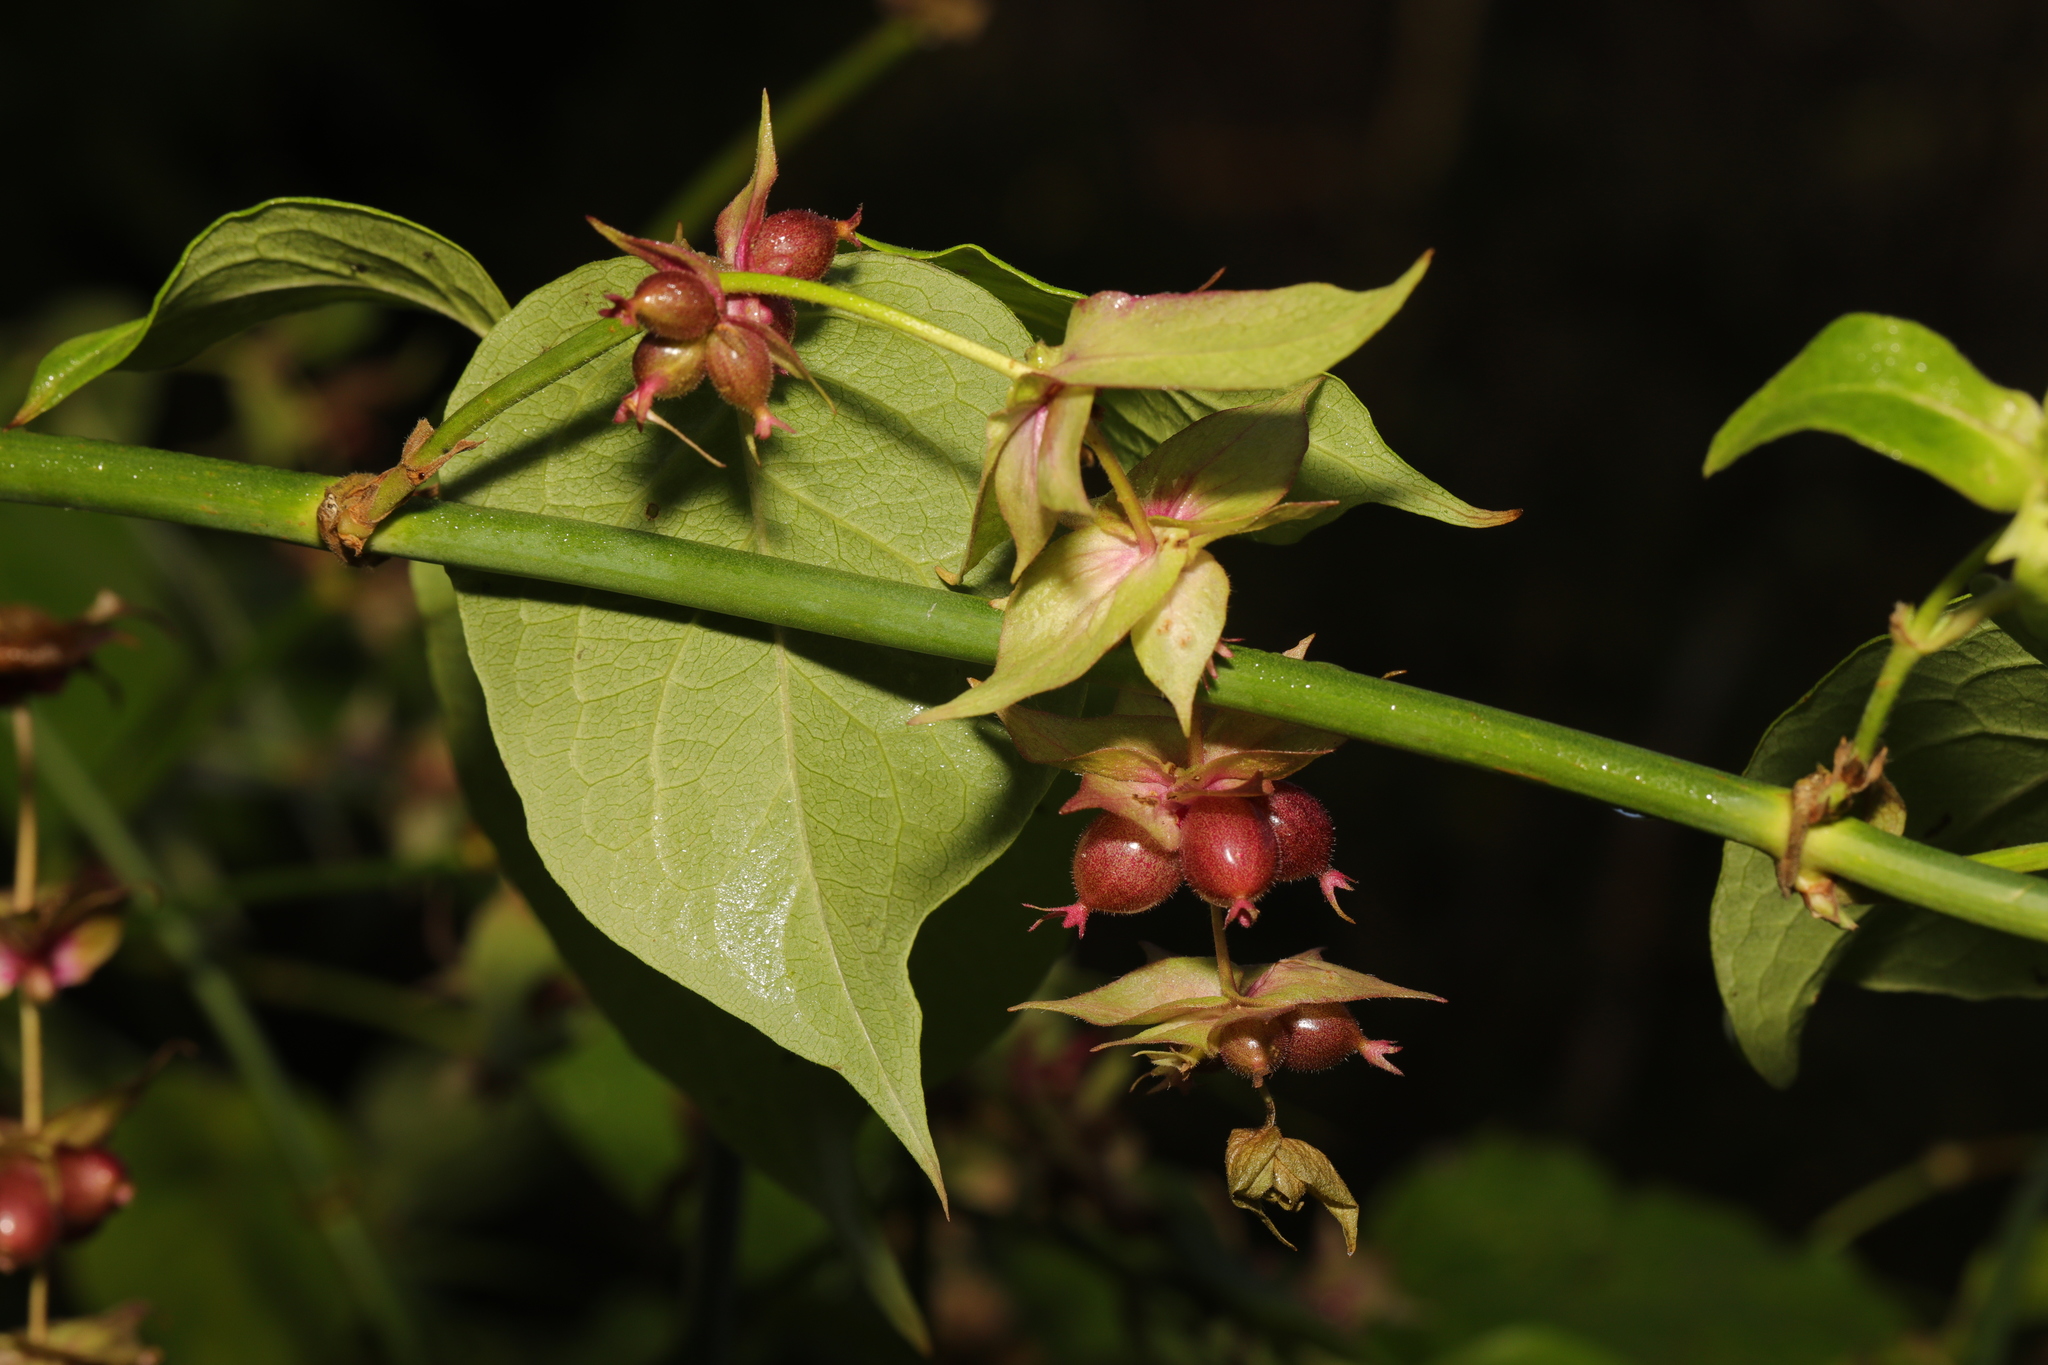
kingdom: Plantae
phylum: Tracheophyta
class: Magnoliopsida
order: Dipsacales
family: Caprifoliaceae
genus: Leycesteria
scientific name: Leycesteria formosa
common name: Himalayan honeysuckle
